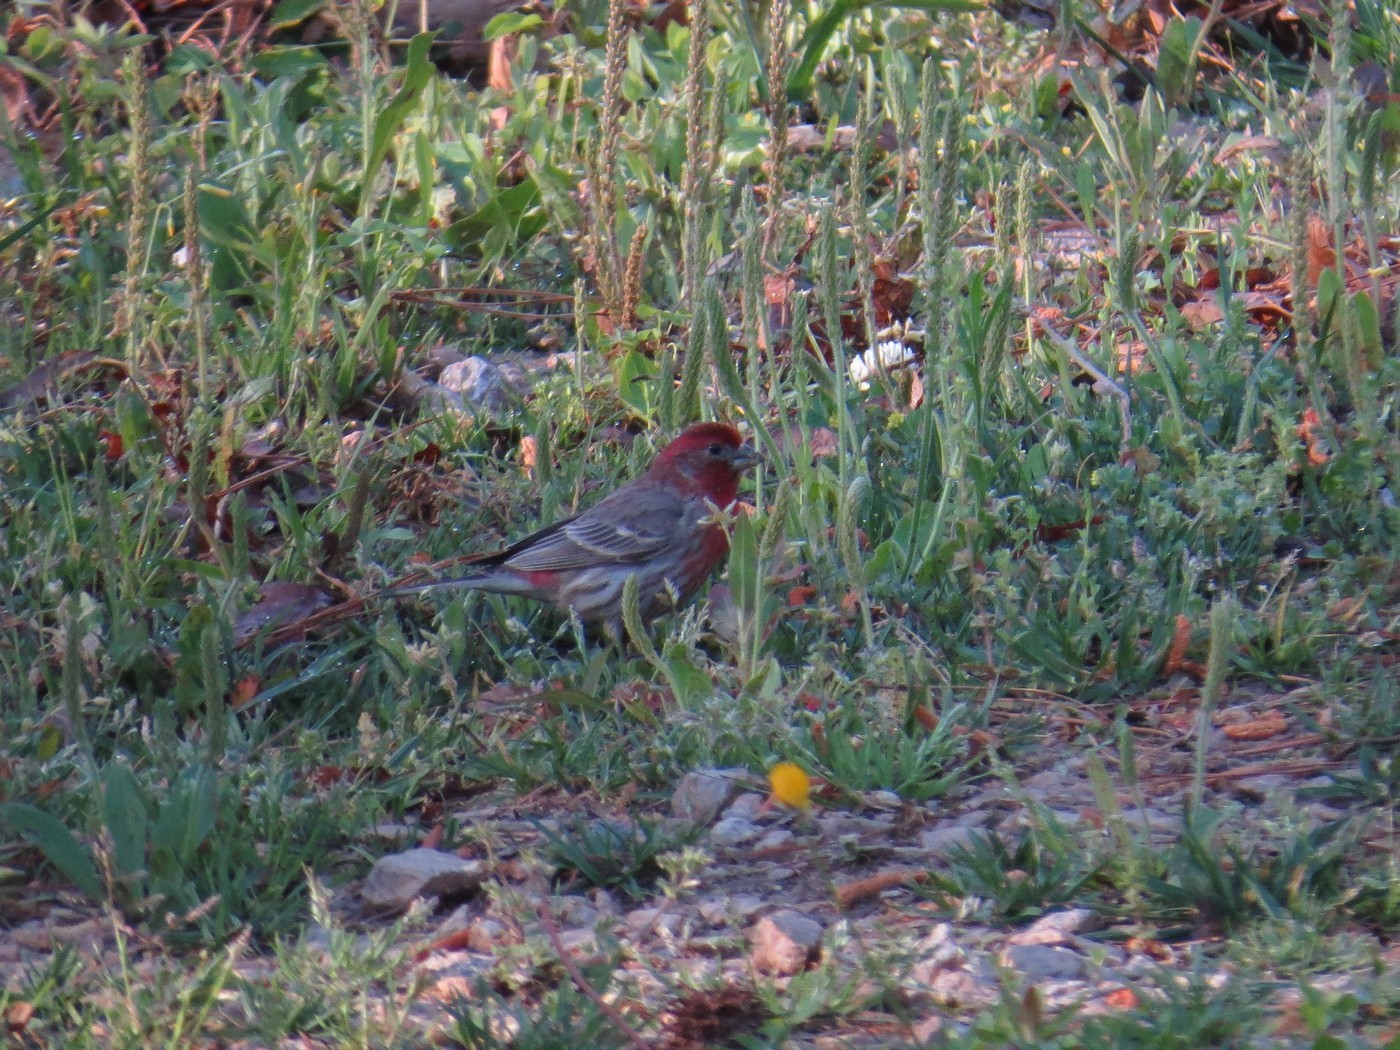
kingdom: Animalia
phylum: Chordata
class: Aves
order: Passeriformes
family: Fringillidae
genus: Haemorhous
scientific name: Haemorhous mexicanus
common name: House finch
